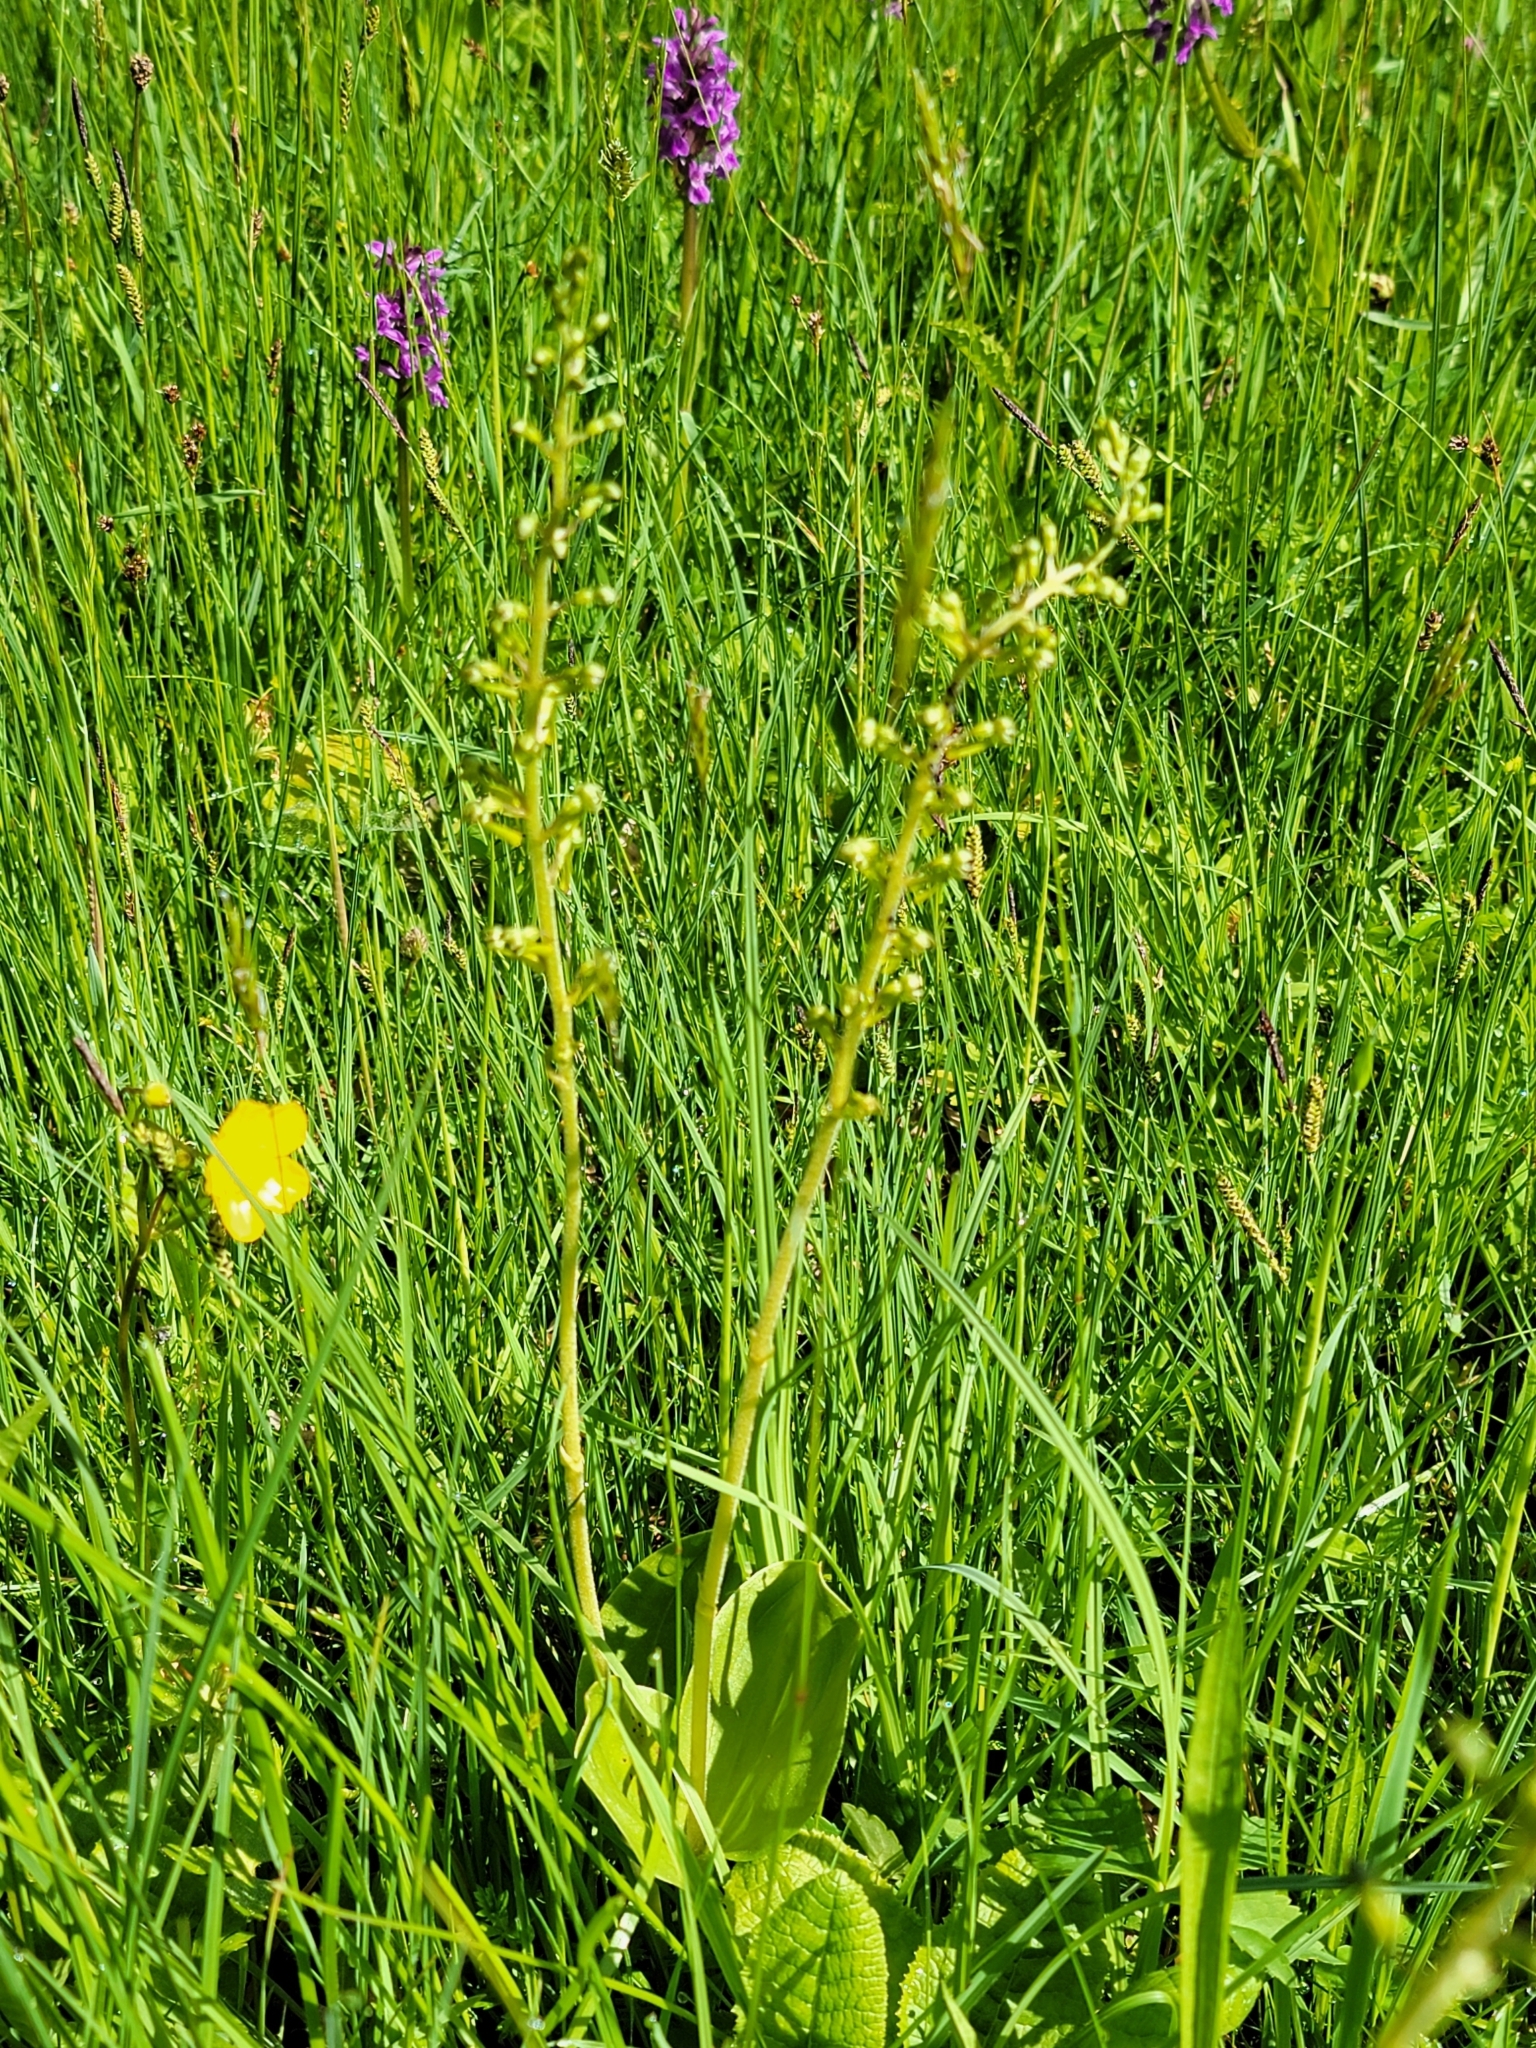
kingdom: Plantae
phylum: Tracheophyta
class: Liliopsida
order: Asparagales
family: Orchidaceae
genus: Neottia
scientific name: Neottia ovata
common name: Common twayblade
